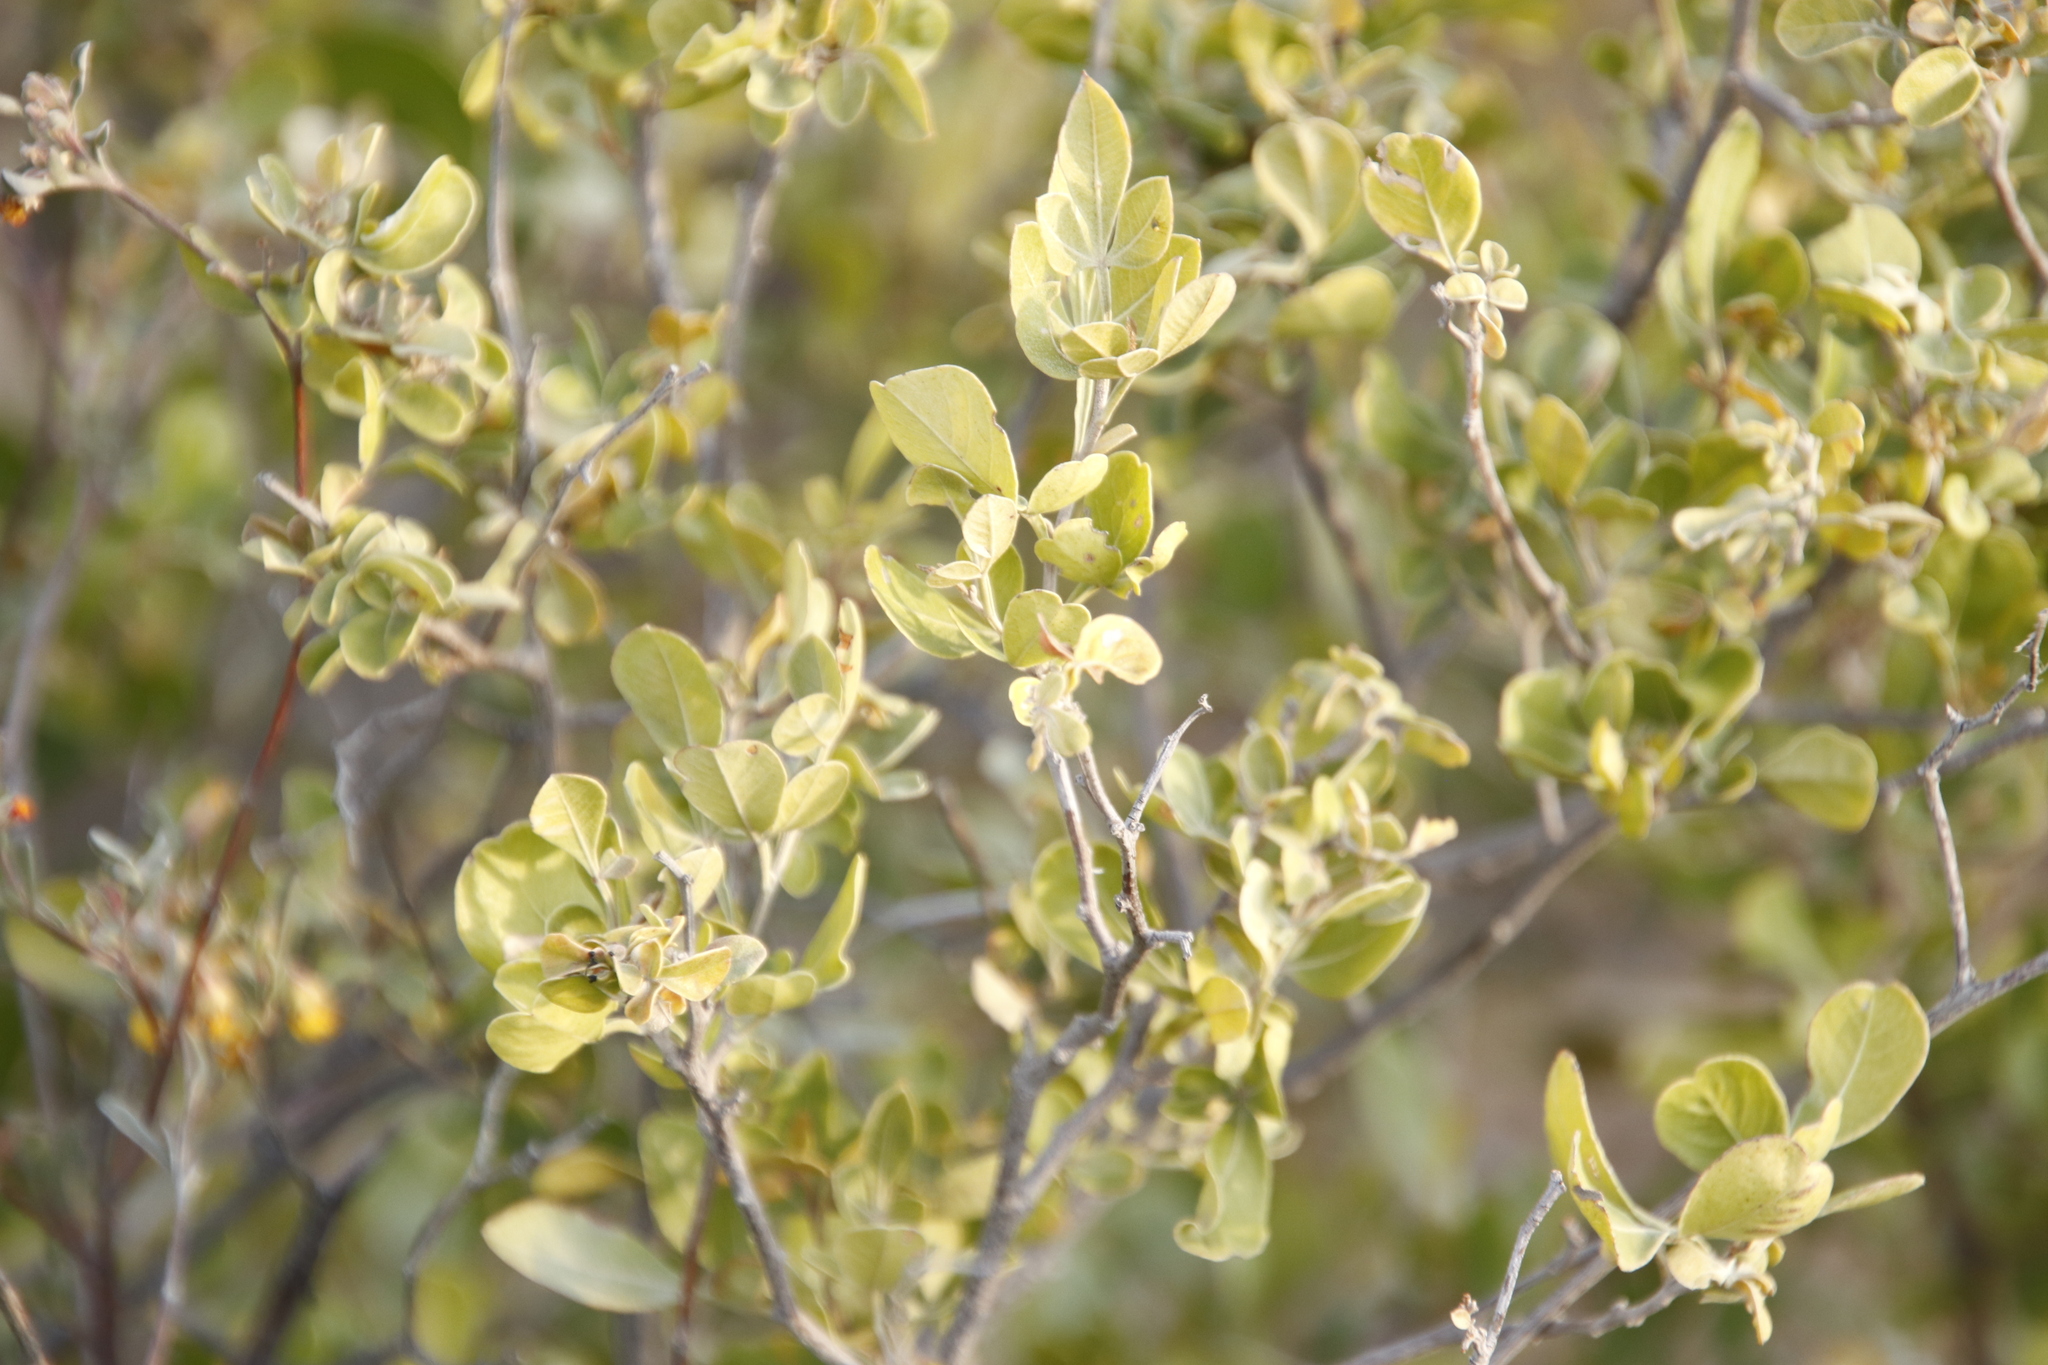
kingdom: Plantae
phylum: Tracheophyta
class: Magnoliopsida
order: Sapindales
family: Anacardiaceae
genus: Searsia
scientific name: Searsia pallens
